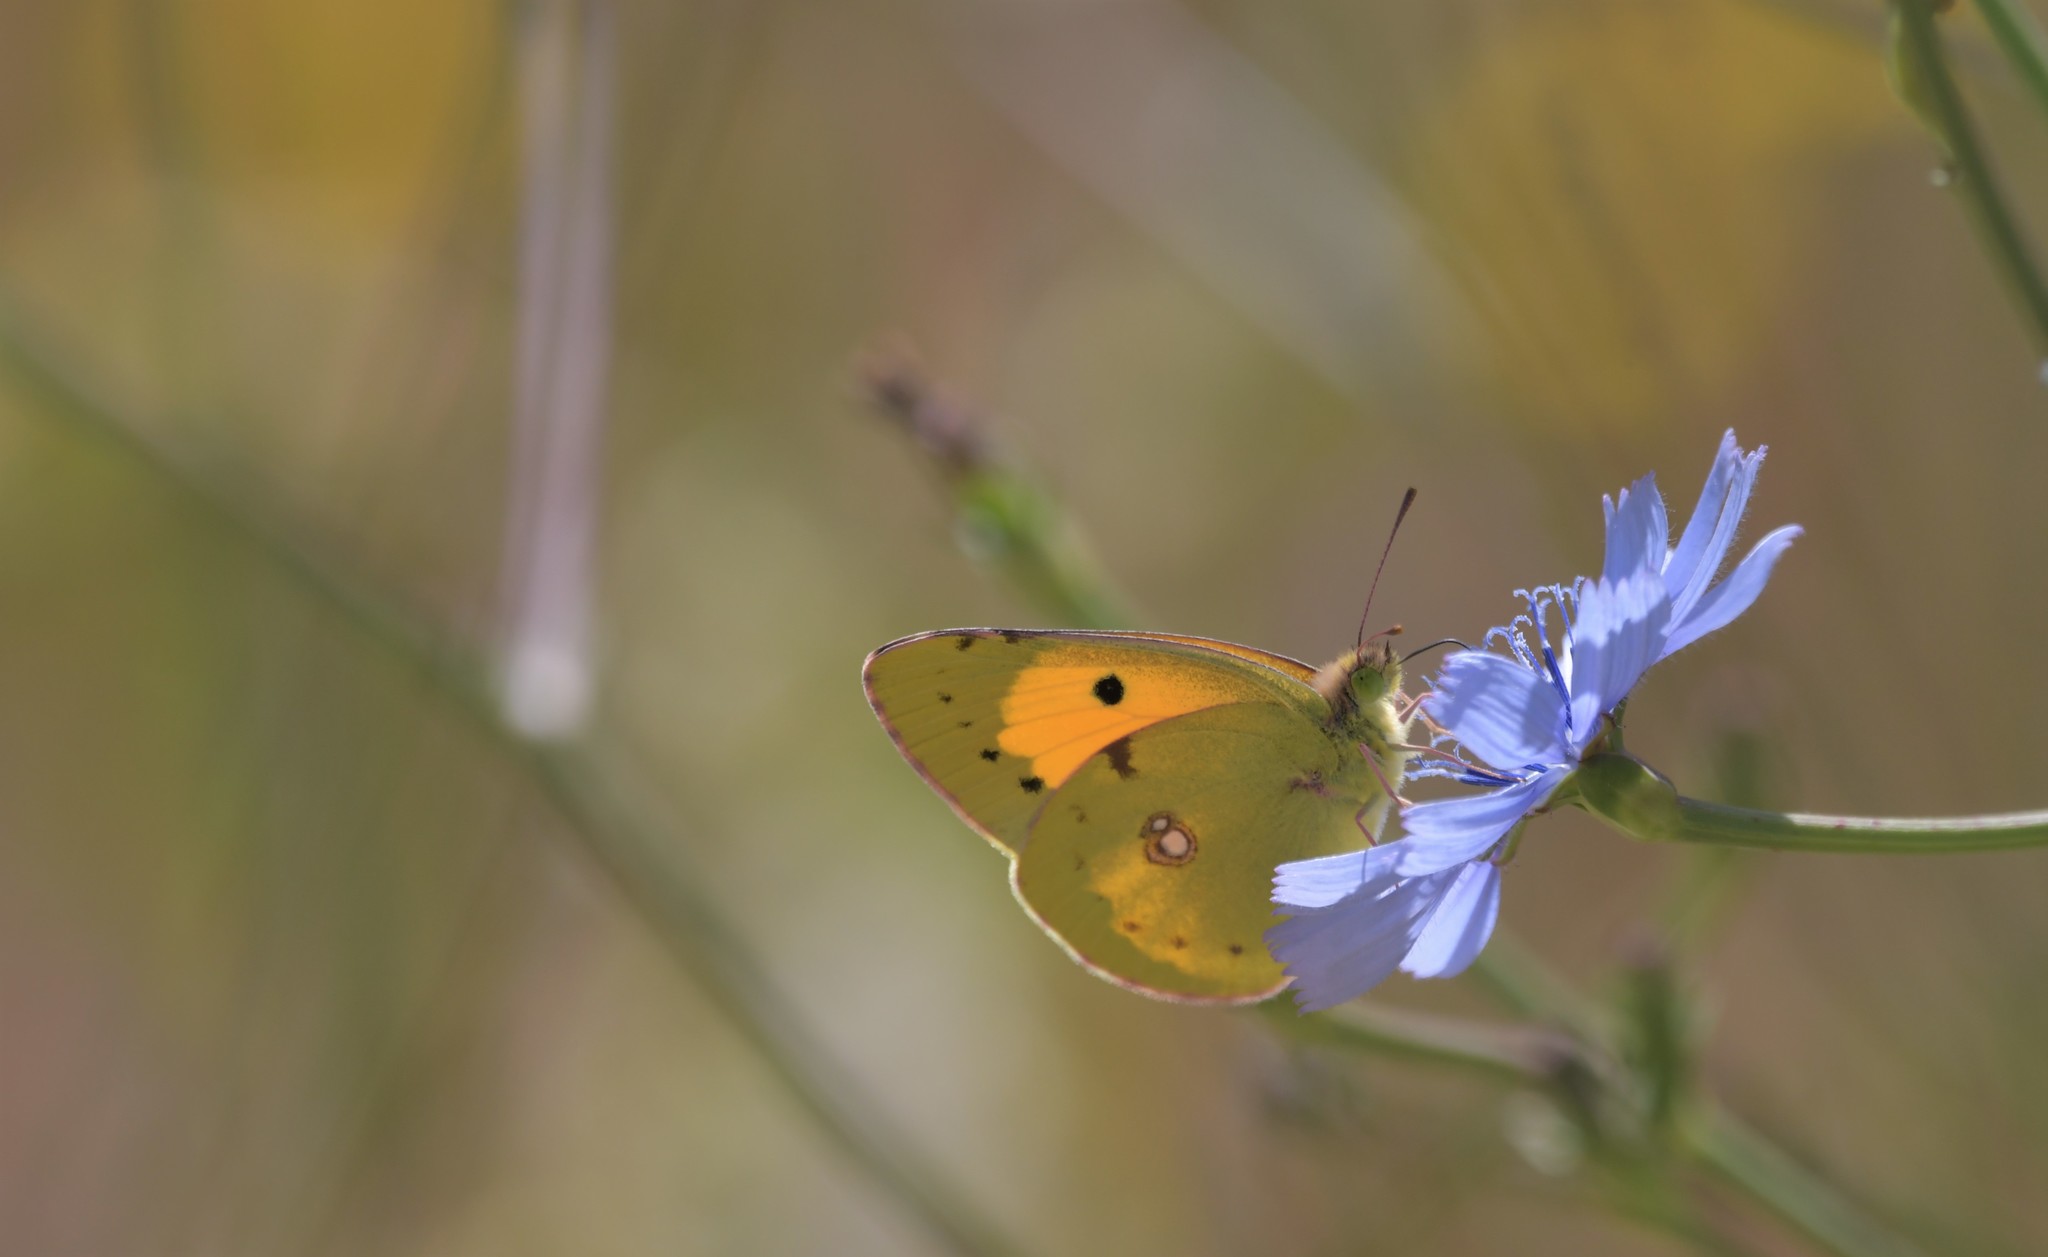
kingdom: Animalia
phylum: Arthropoda
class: Insecta
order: Lepidoptera
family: Pieridae
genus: Colias
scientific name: Colias croceus
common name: Clouded yellow
